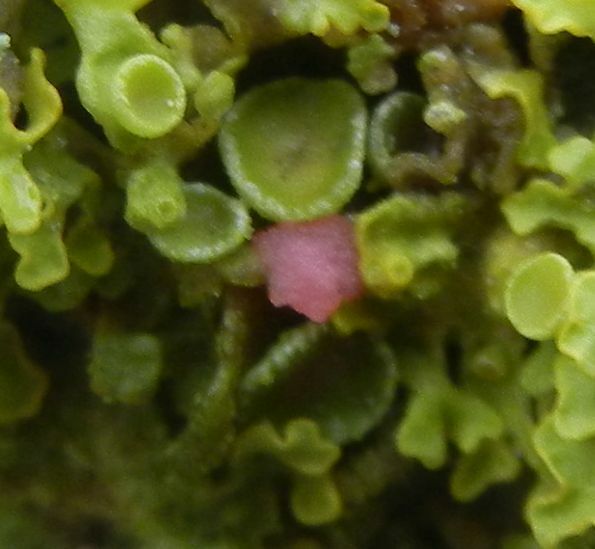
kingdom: Fungi
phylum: Ascomycota
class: Sordariomycetes
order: Hypocreales
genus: Illosporiopsis
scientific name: Illosporiopsis christiansenii
